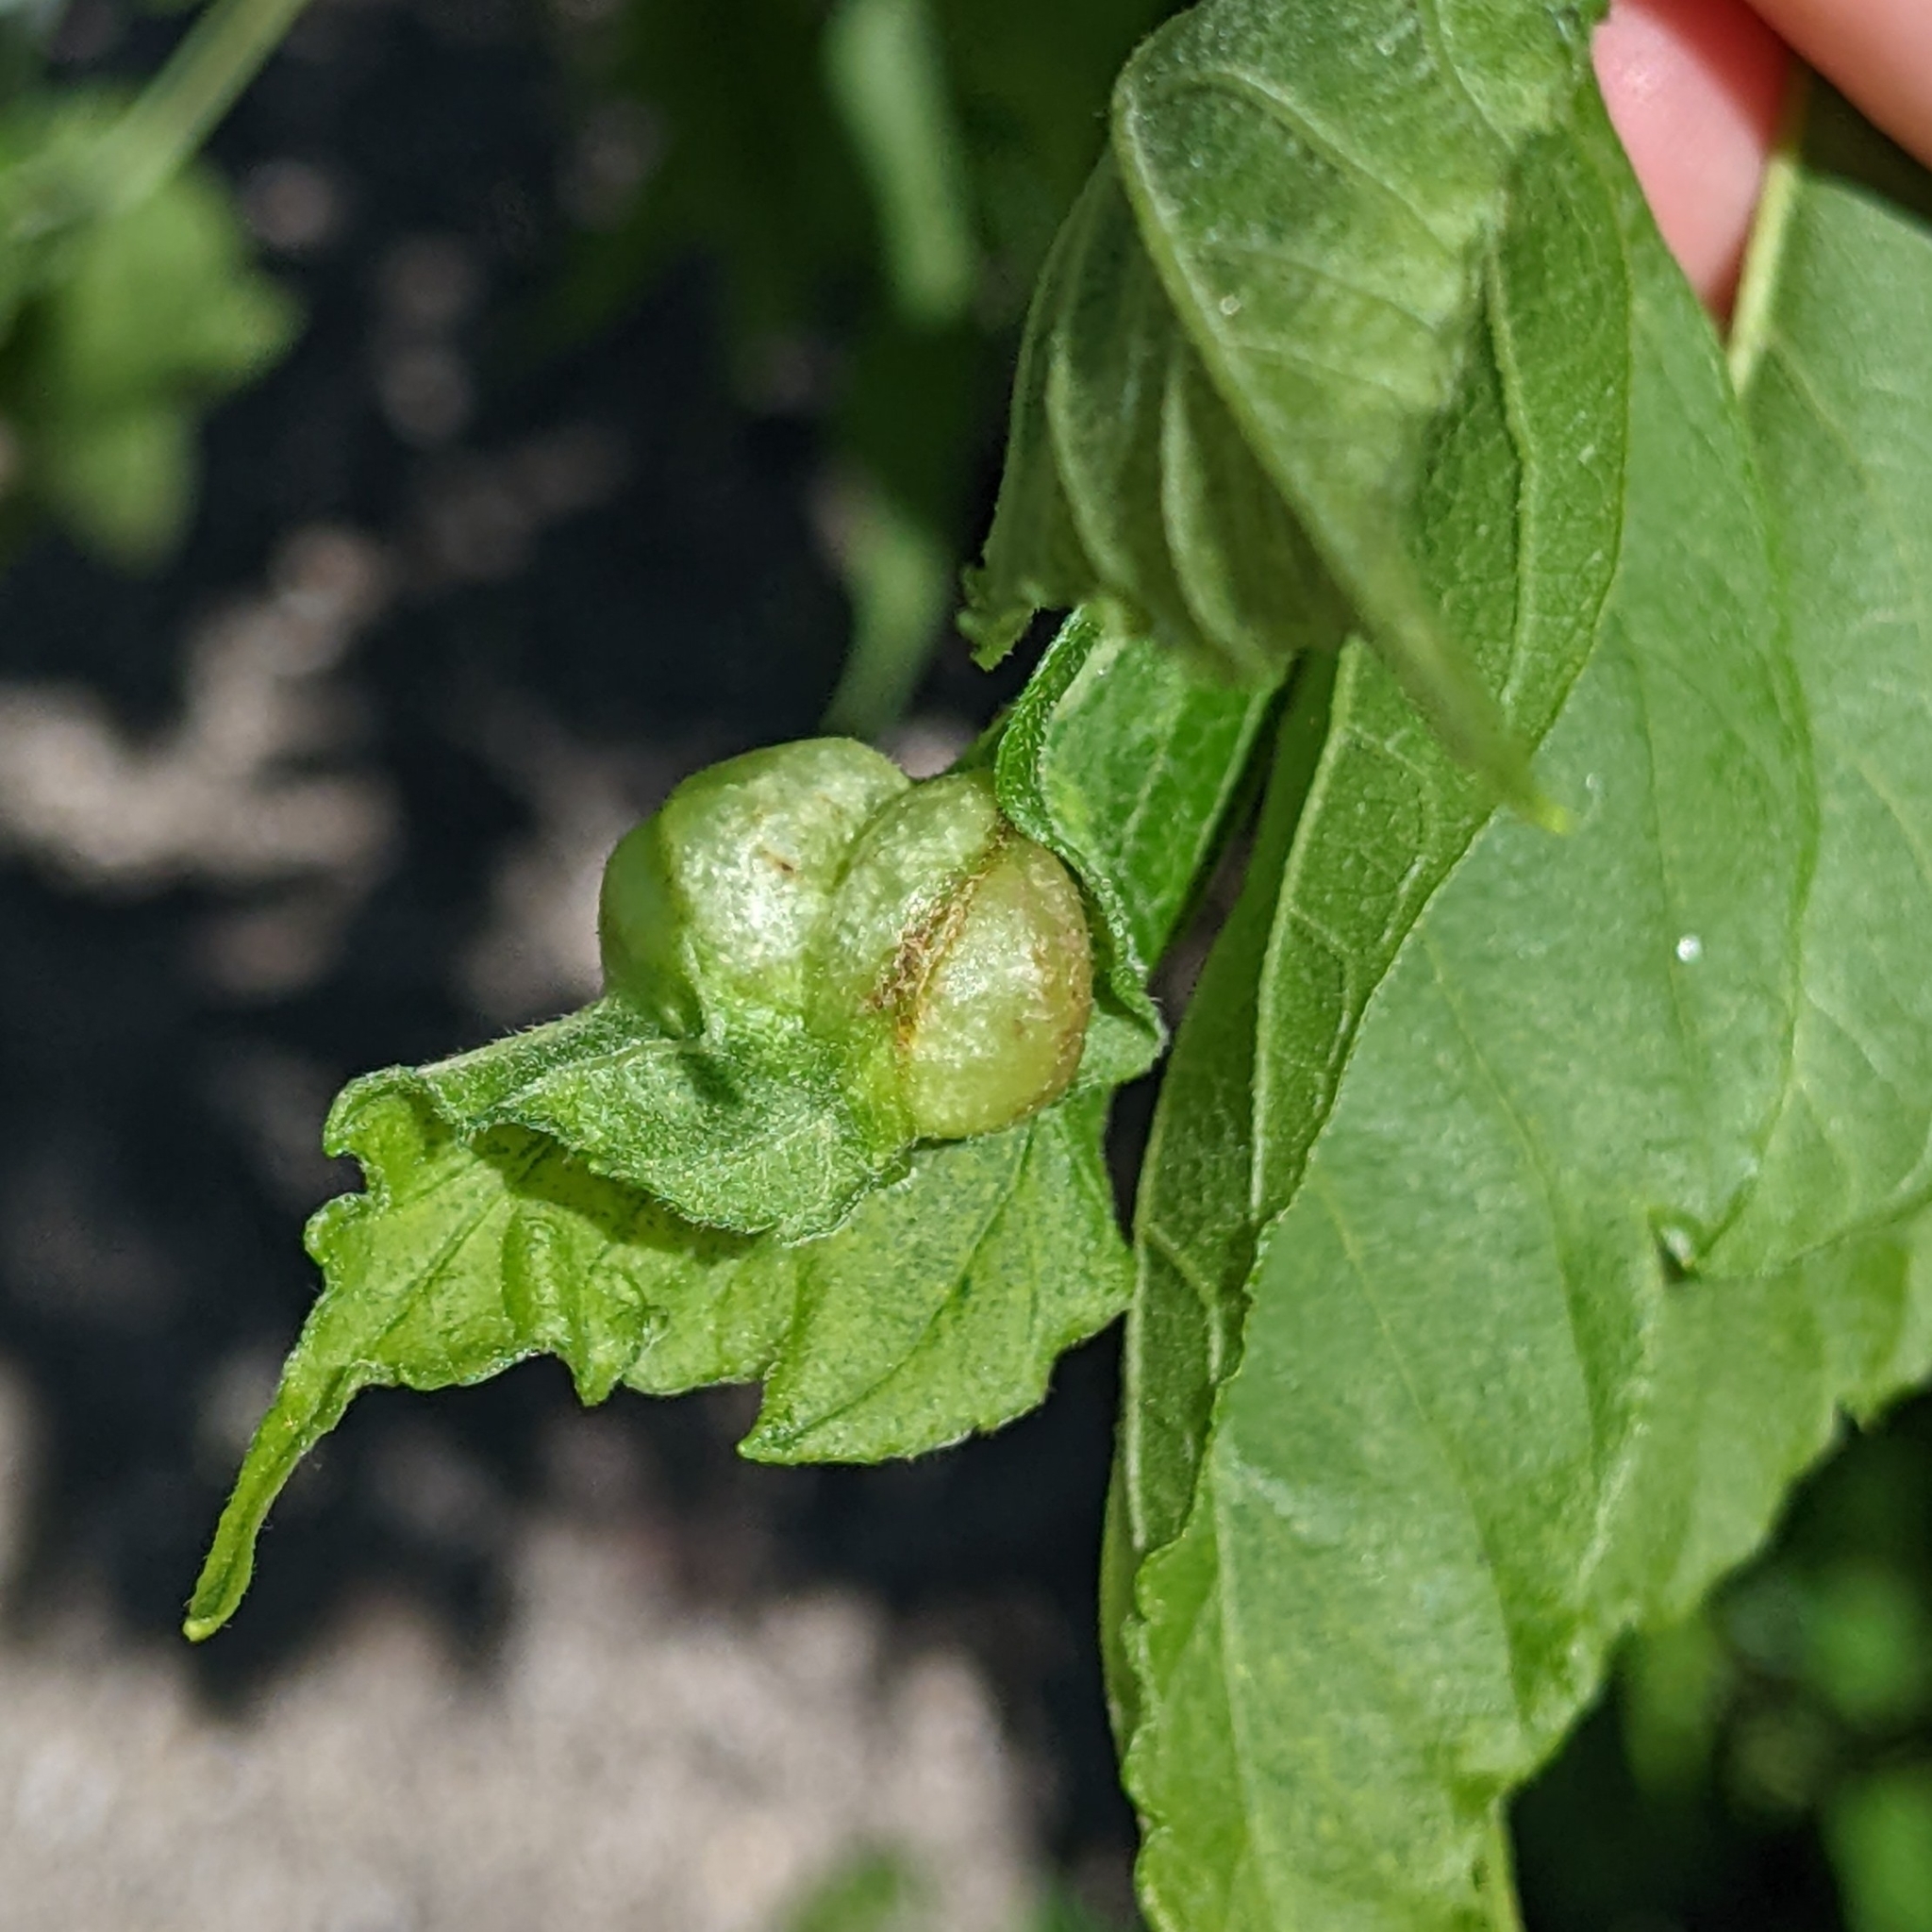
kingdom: Animalia
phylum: Arthropoda
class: Insecta
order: Diptera
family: Cecidomyiidae
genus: Contarinia
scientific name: Contarinia negundinis
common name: Boxelder budgall midge
